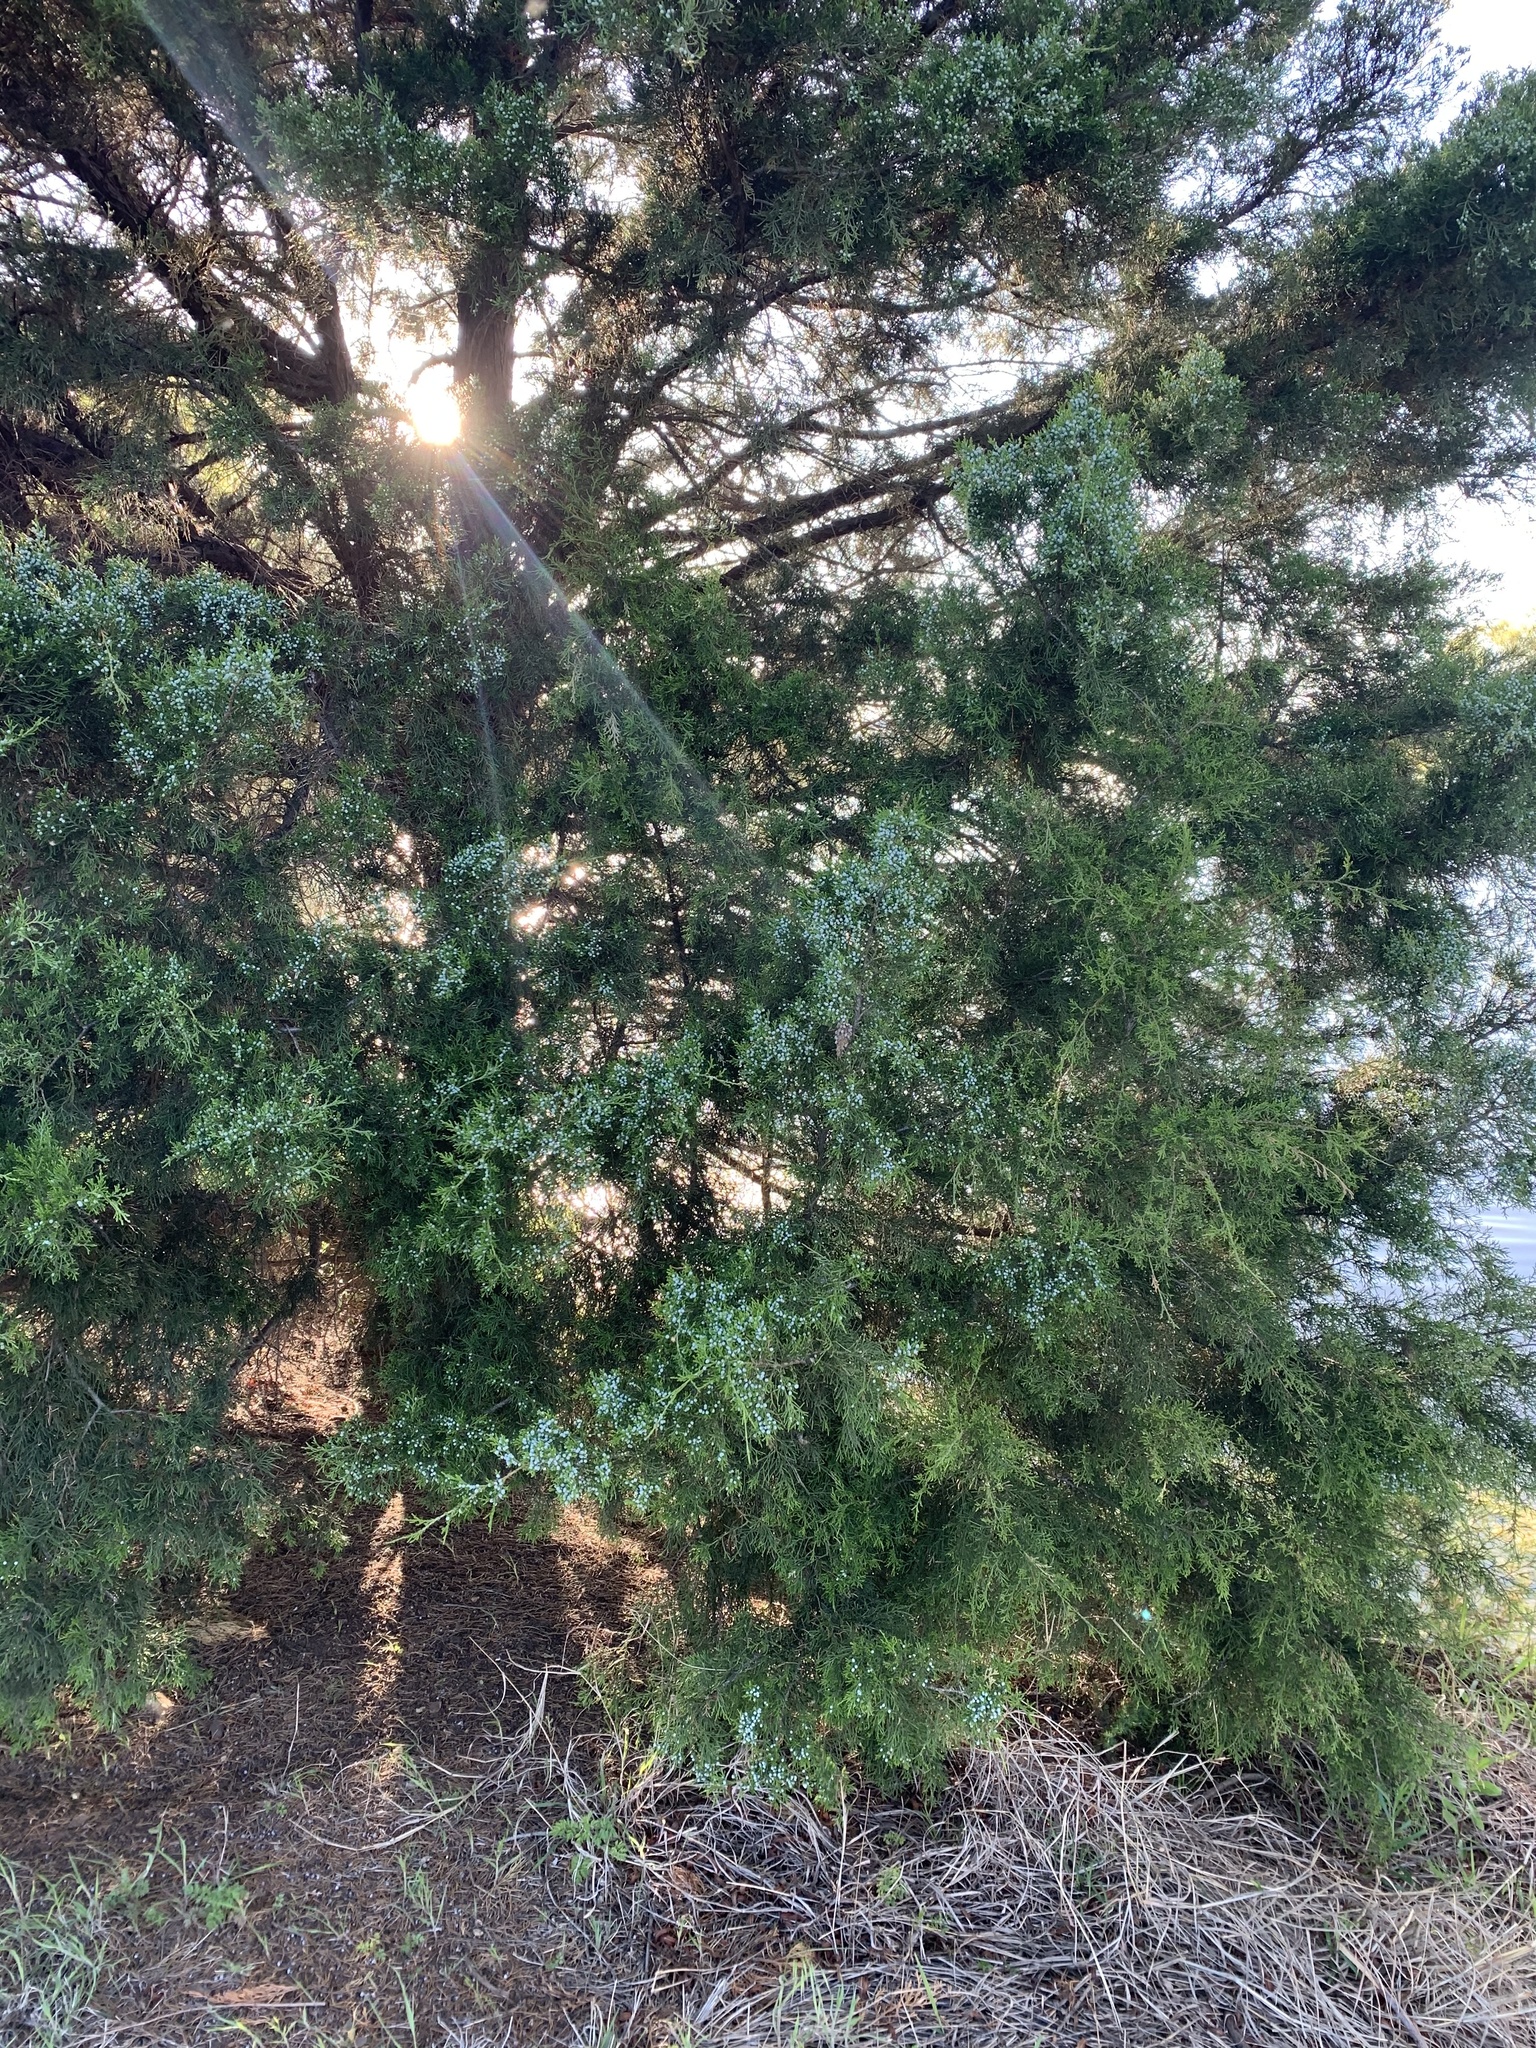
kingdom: Plantae
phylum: Tracheophyta
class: Pinopsida
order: Pinales
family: Cupressaceae
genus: Juniperus
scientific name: Juniperus virginiana
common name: Red juniper
